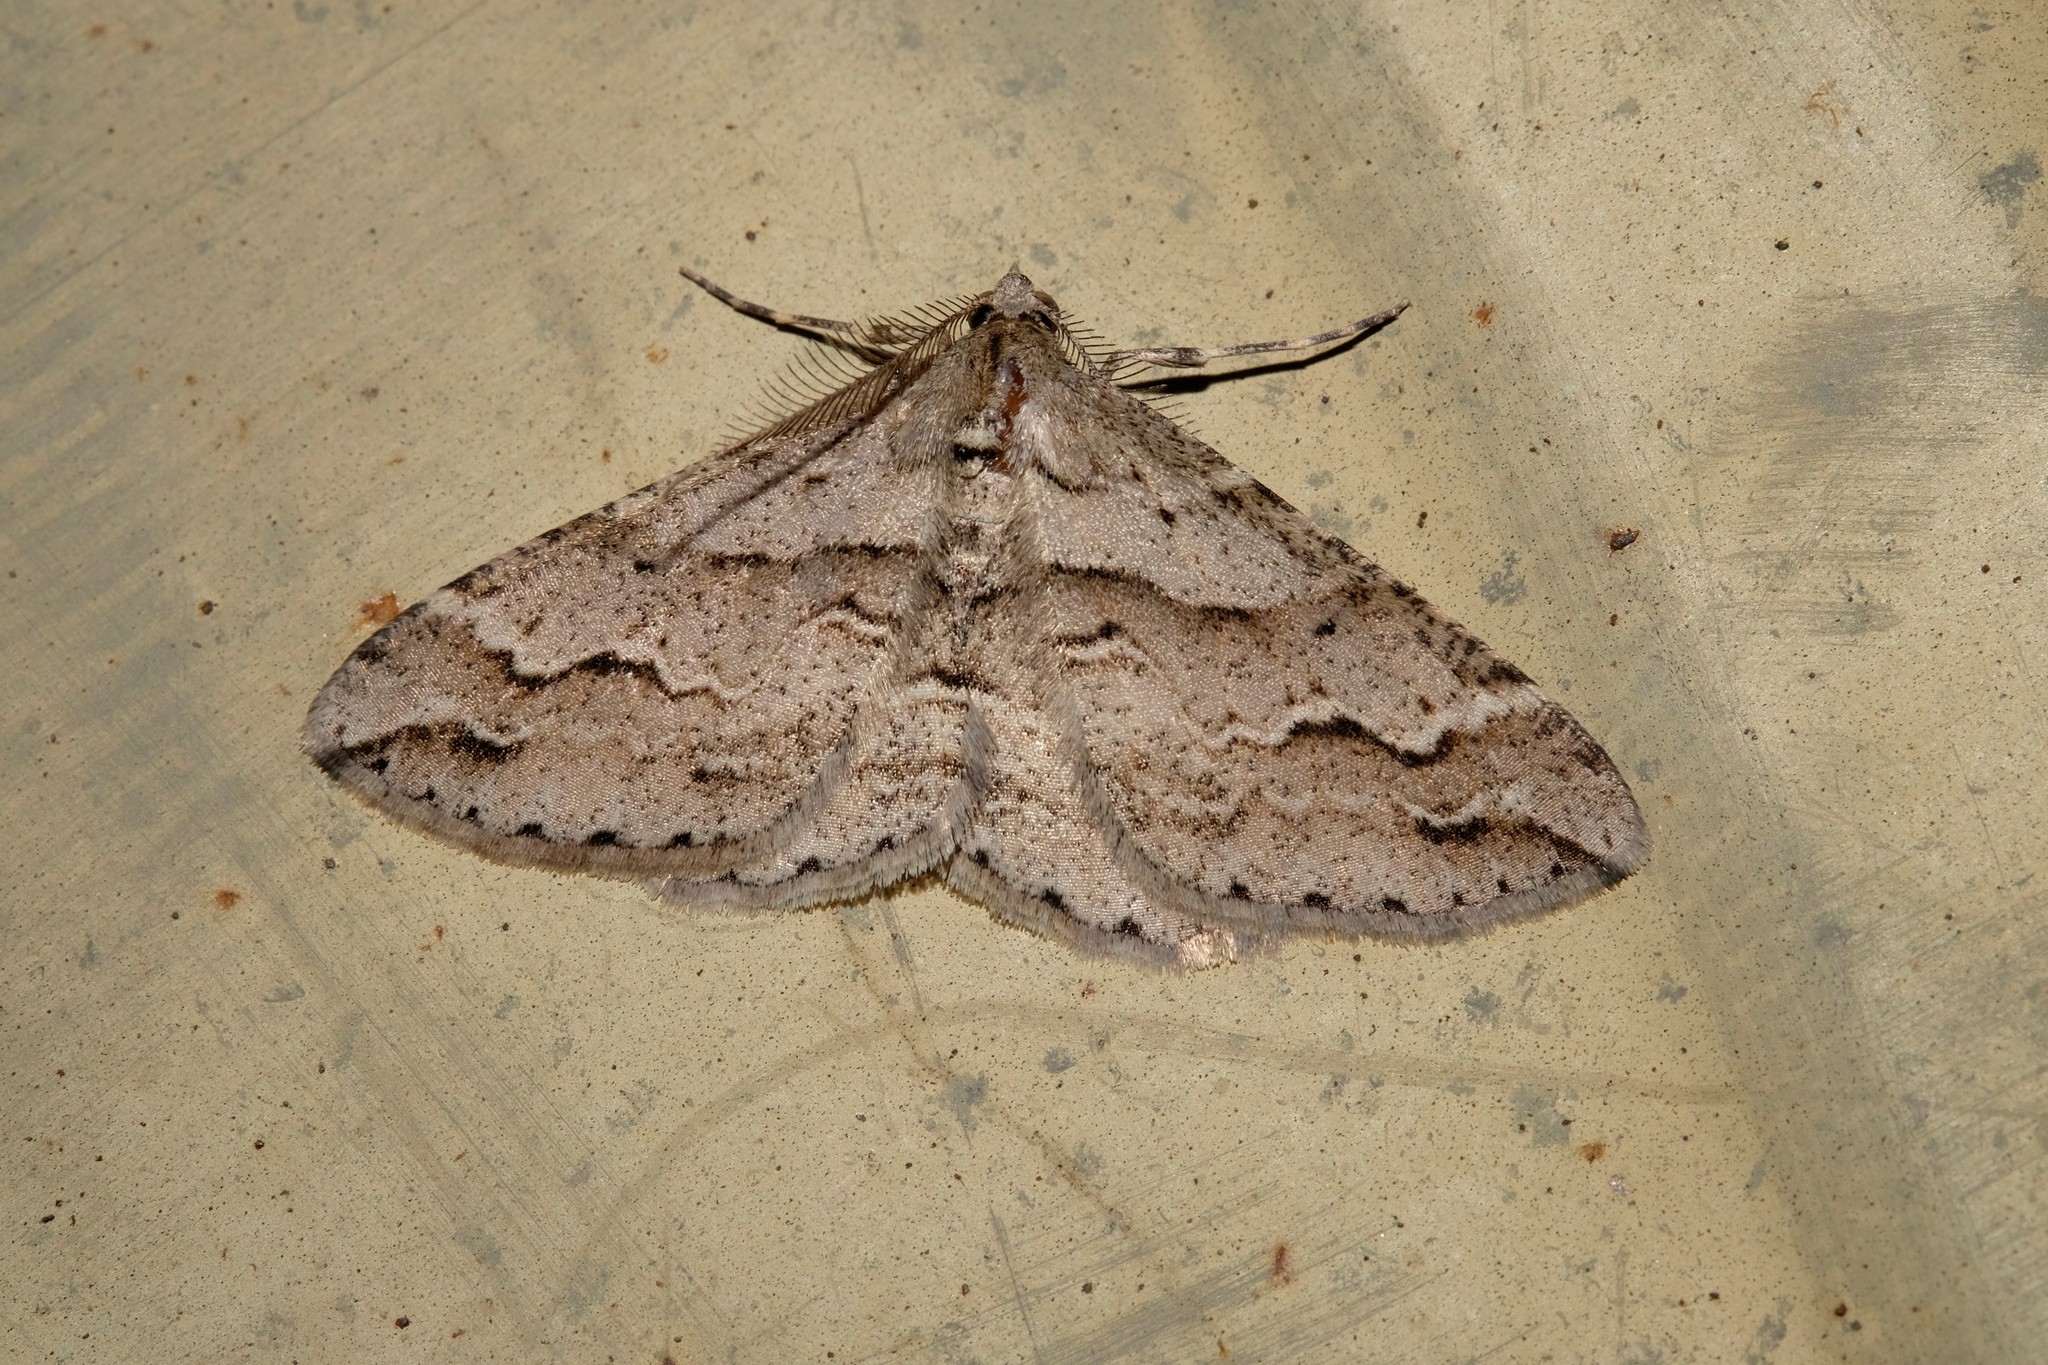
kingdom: Animalia
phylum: Arthropoda
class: Insecta
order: Lepidoptera
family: Geometridae
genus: Syneora
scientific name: Syneora fractata
